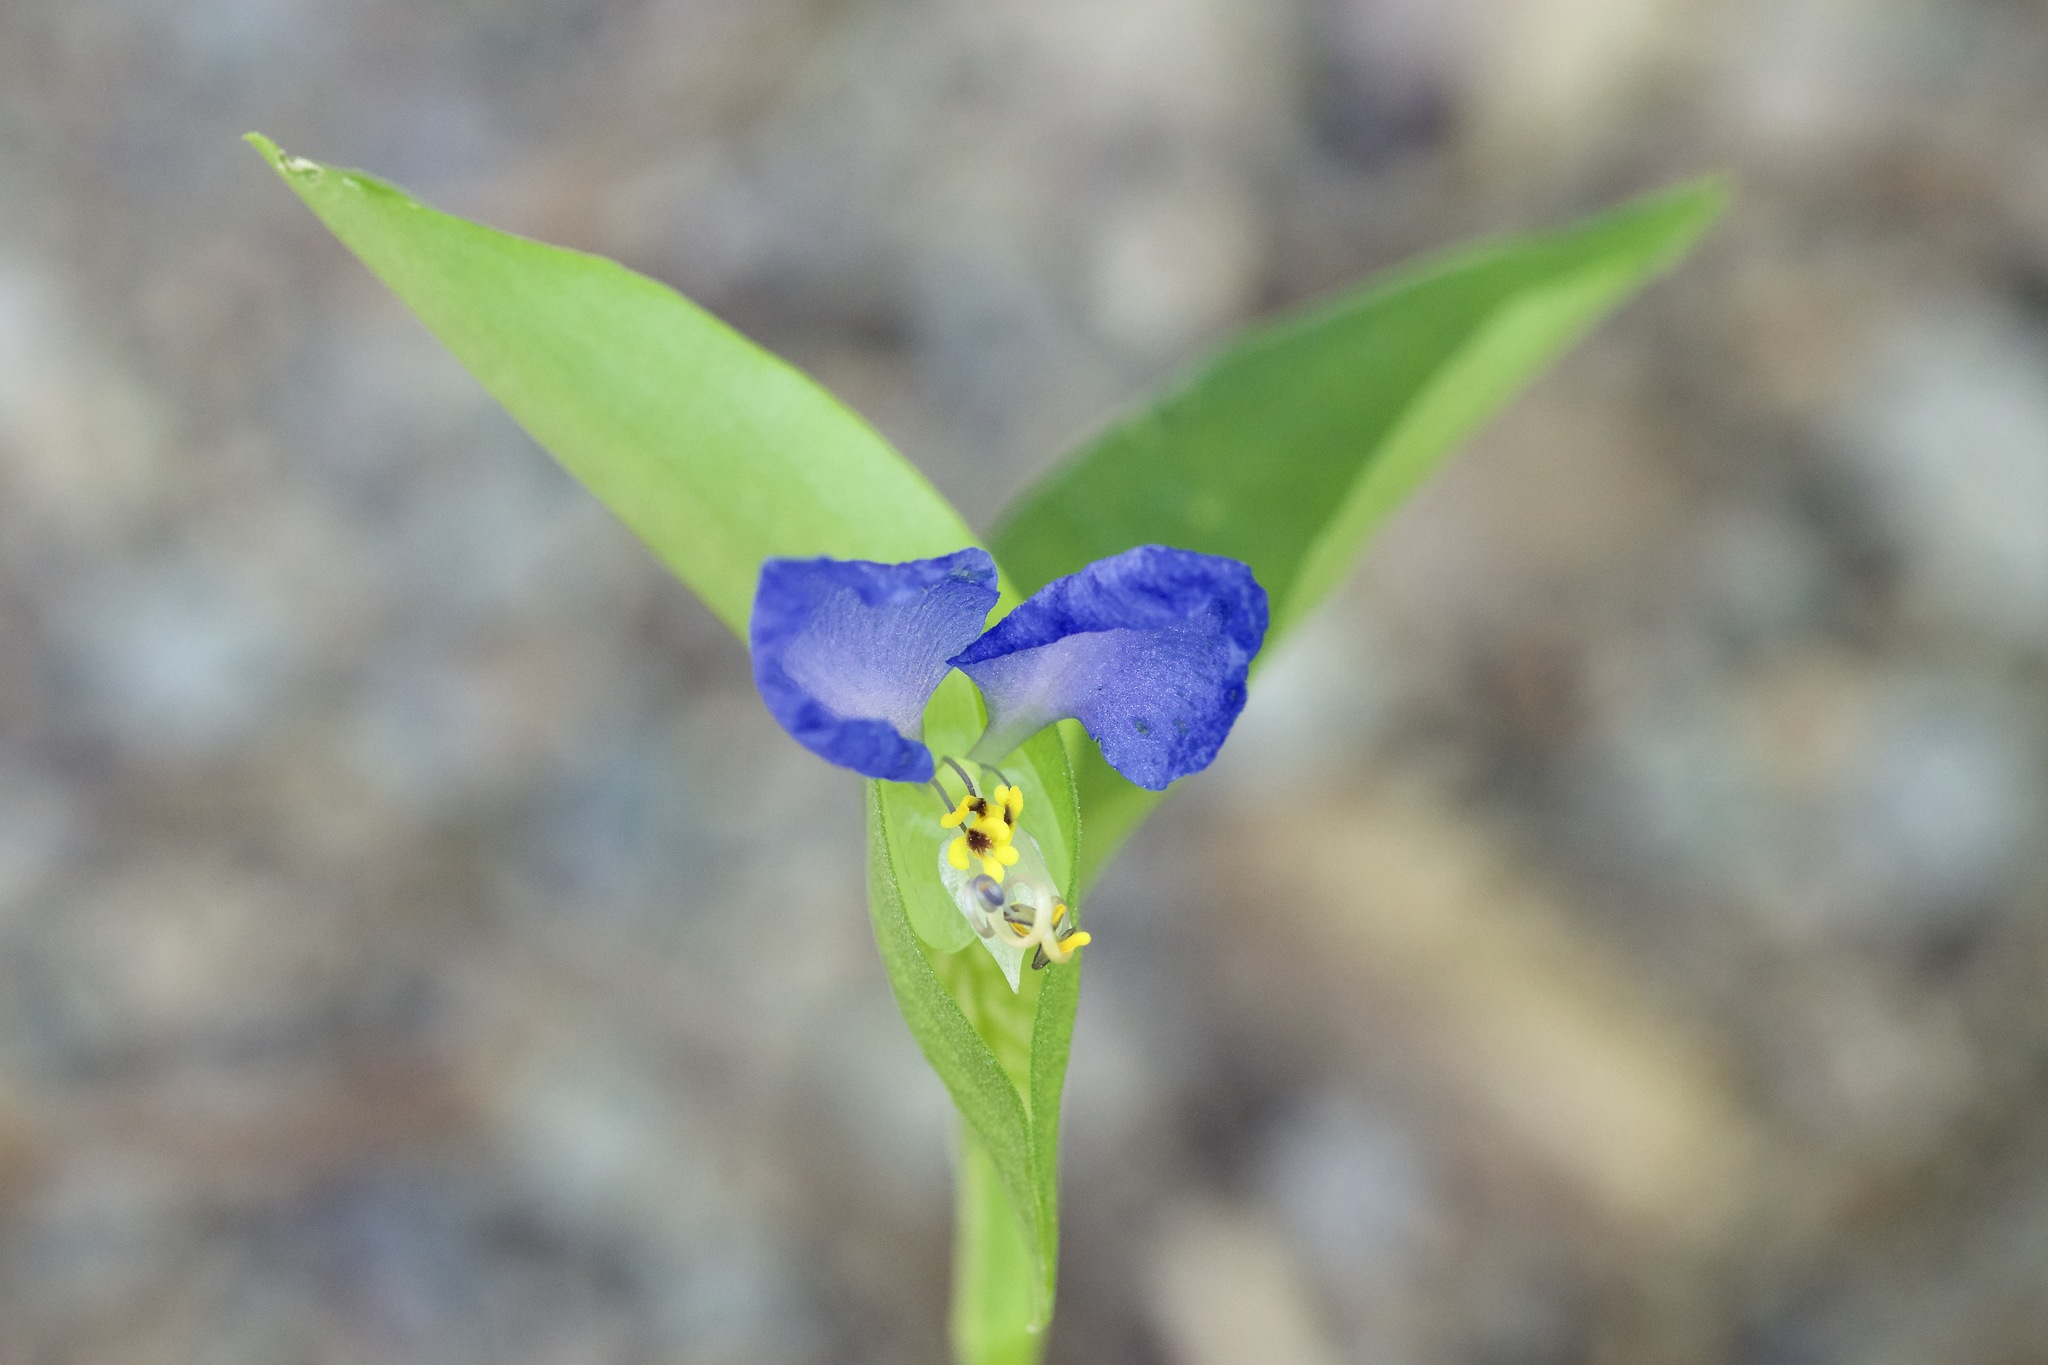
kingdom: Plantae
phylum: Tracheophyta
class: Liliopsida
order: Commelinales
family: Commelinaceae
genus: Commelina
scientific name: Commelina communis
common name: Asiatic dayflower
